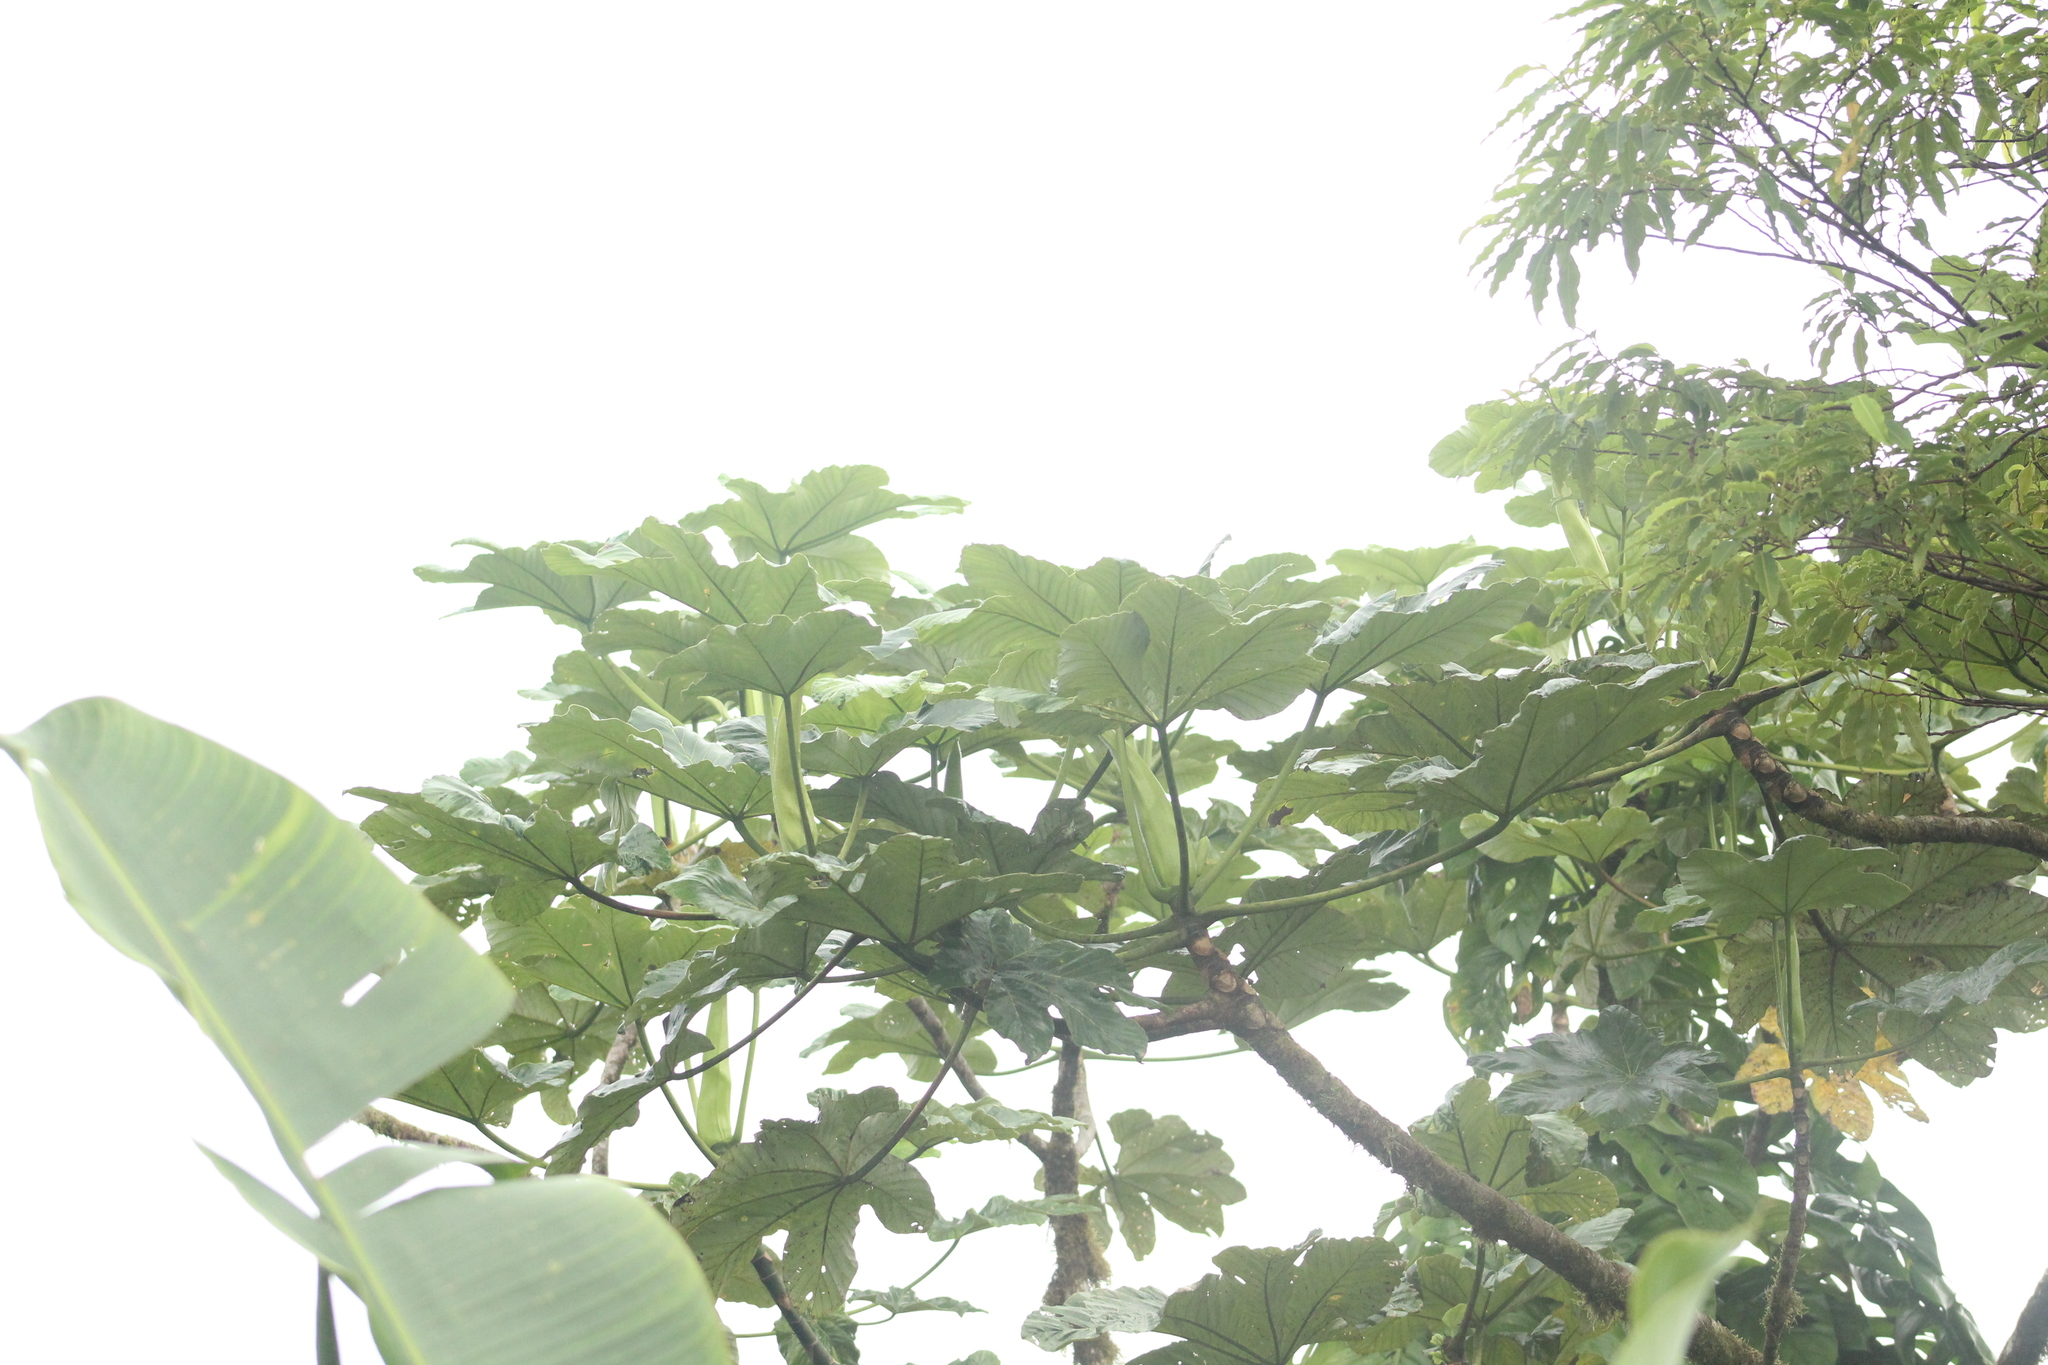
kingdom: Plantae
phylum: Tracheophyta
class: Magnoliopsida
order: Rosales
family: Urticaceae
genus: Cecropia
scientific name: Cecropia schreberiana
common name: Trumpet tree
